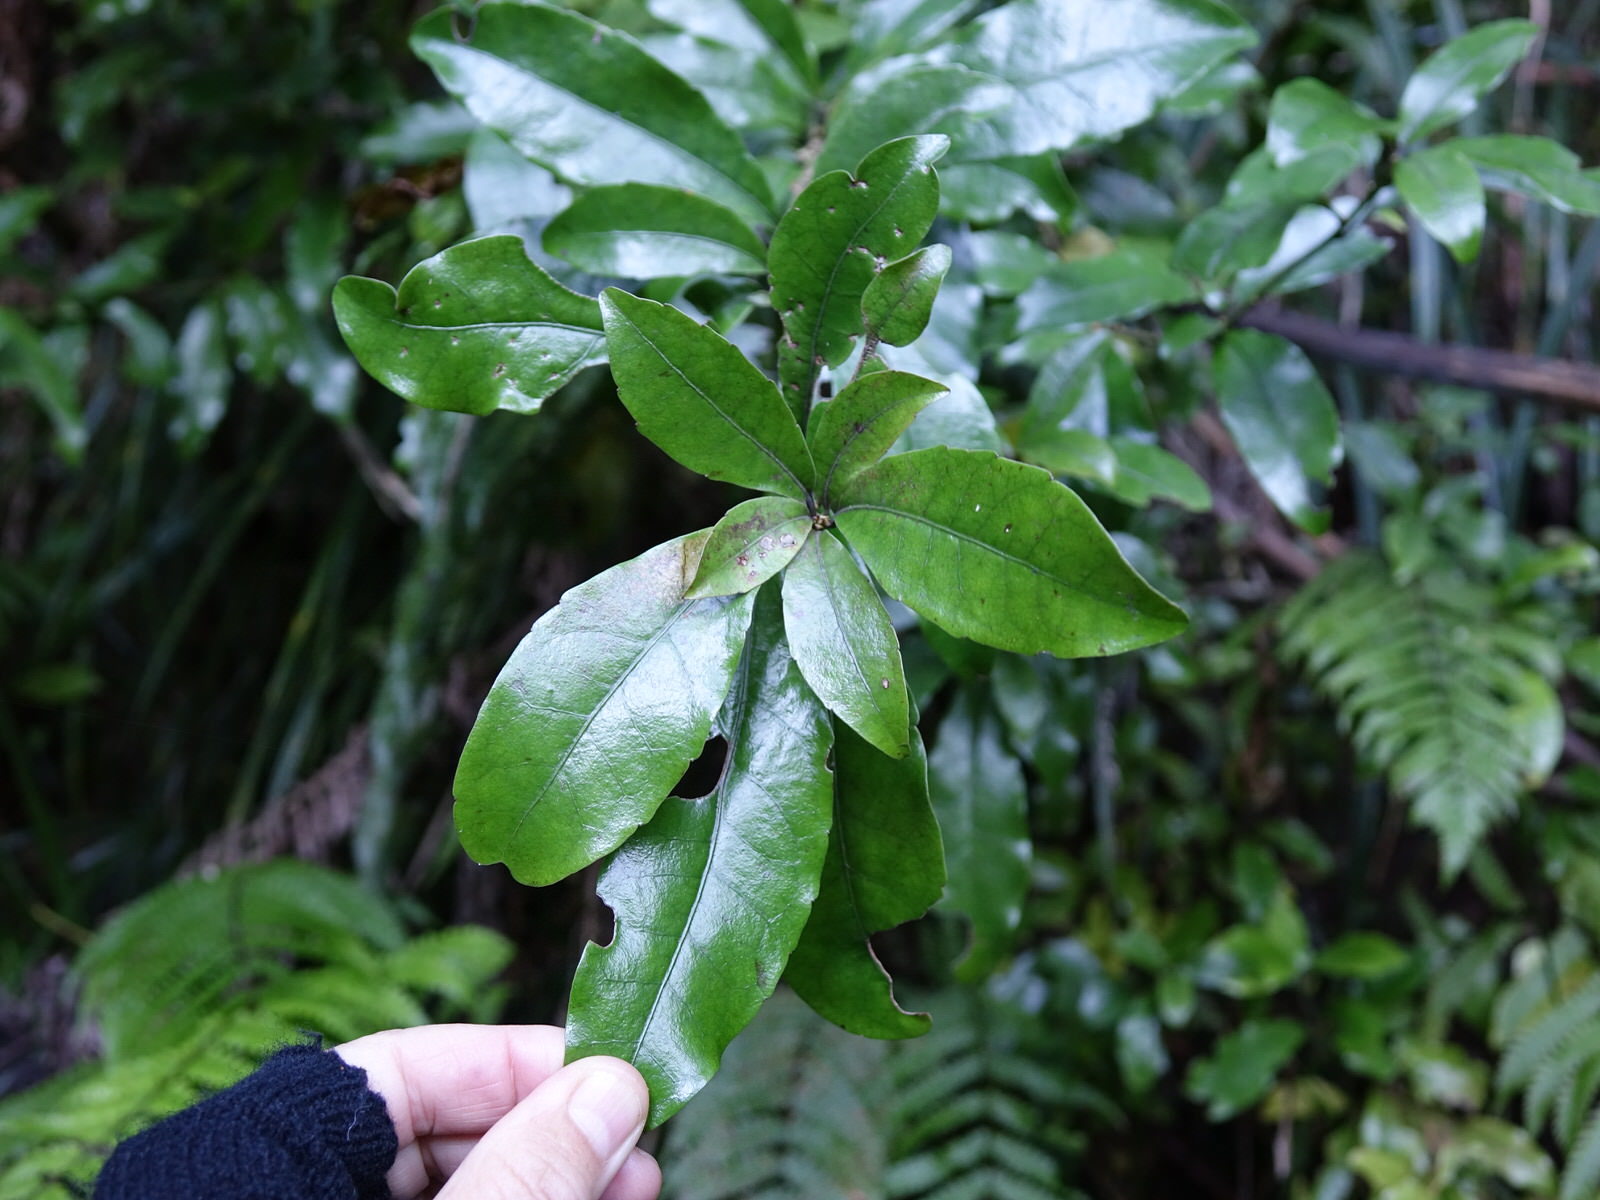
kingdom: Plantae
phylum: Tracheophyta
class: Magnoliopsida
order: Asterales
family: Alseuosmiaceae
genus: Alseuosmia
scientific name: Alseuosmia macrophylla
